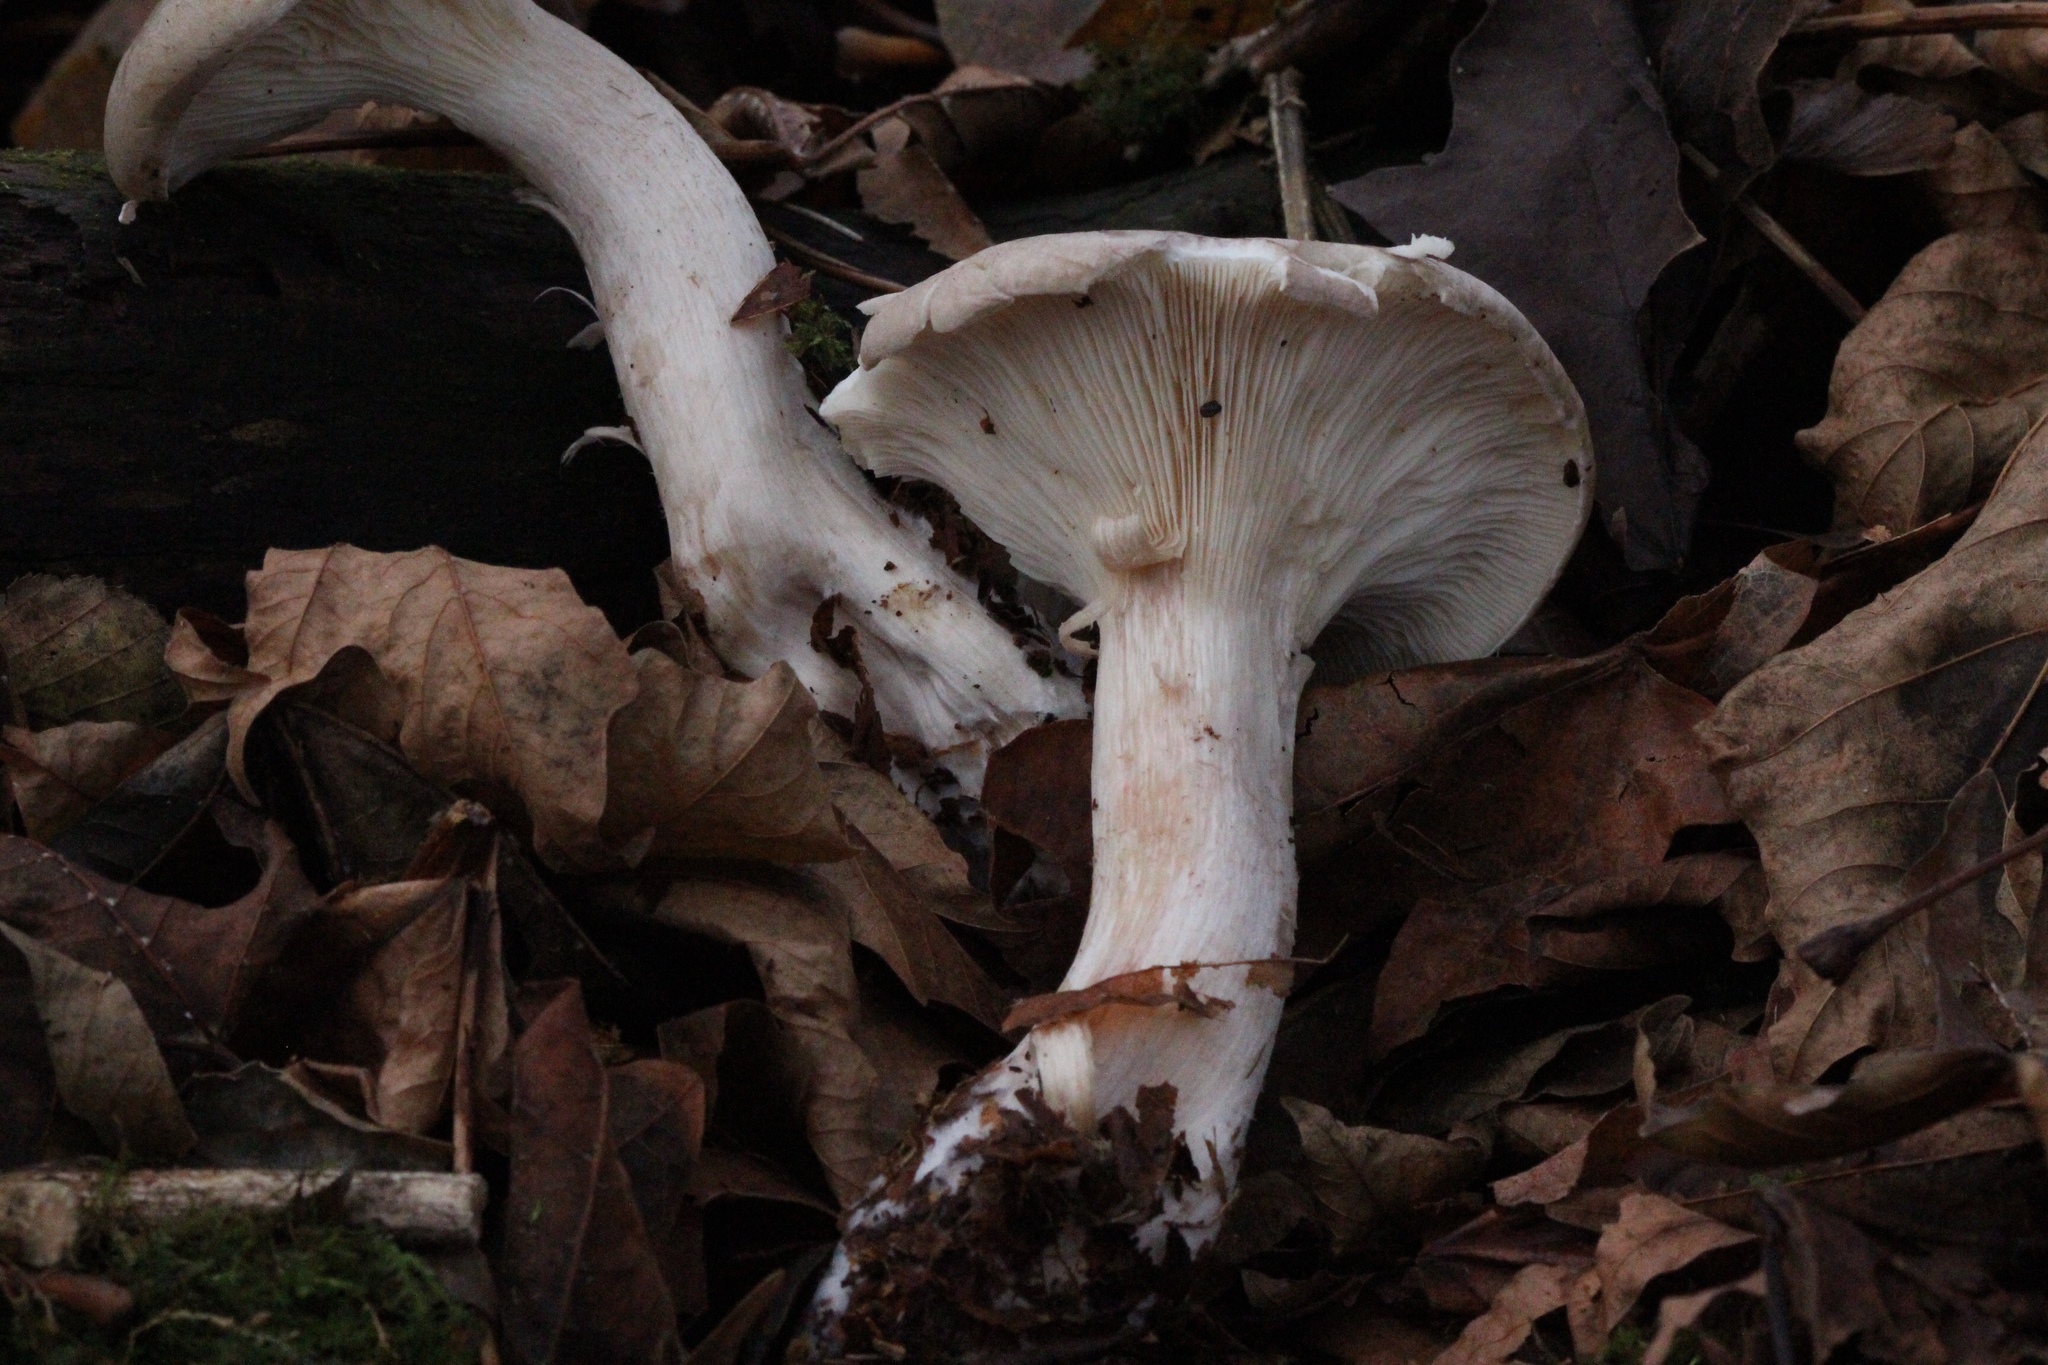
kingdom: Fungi
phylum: Basidiomycota
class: Agaricomycetes
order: Agaricales
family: Tricholomataceae
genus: Clitocybe
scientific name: Clitocybe nebularis
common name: Clouded agaric
